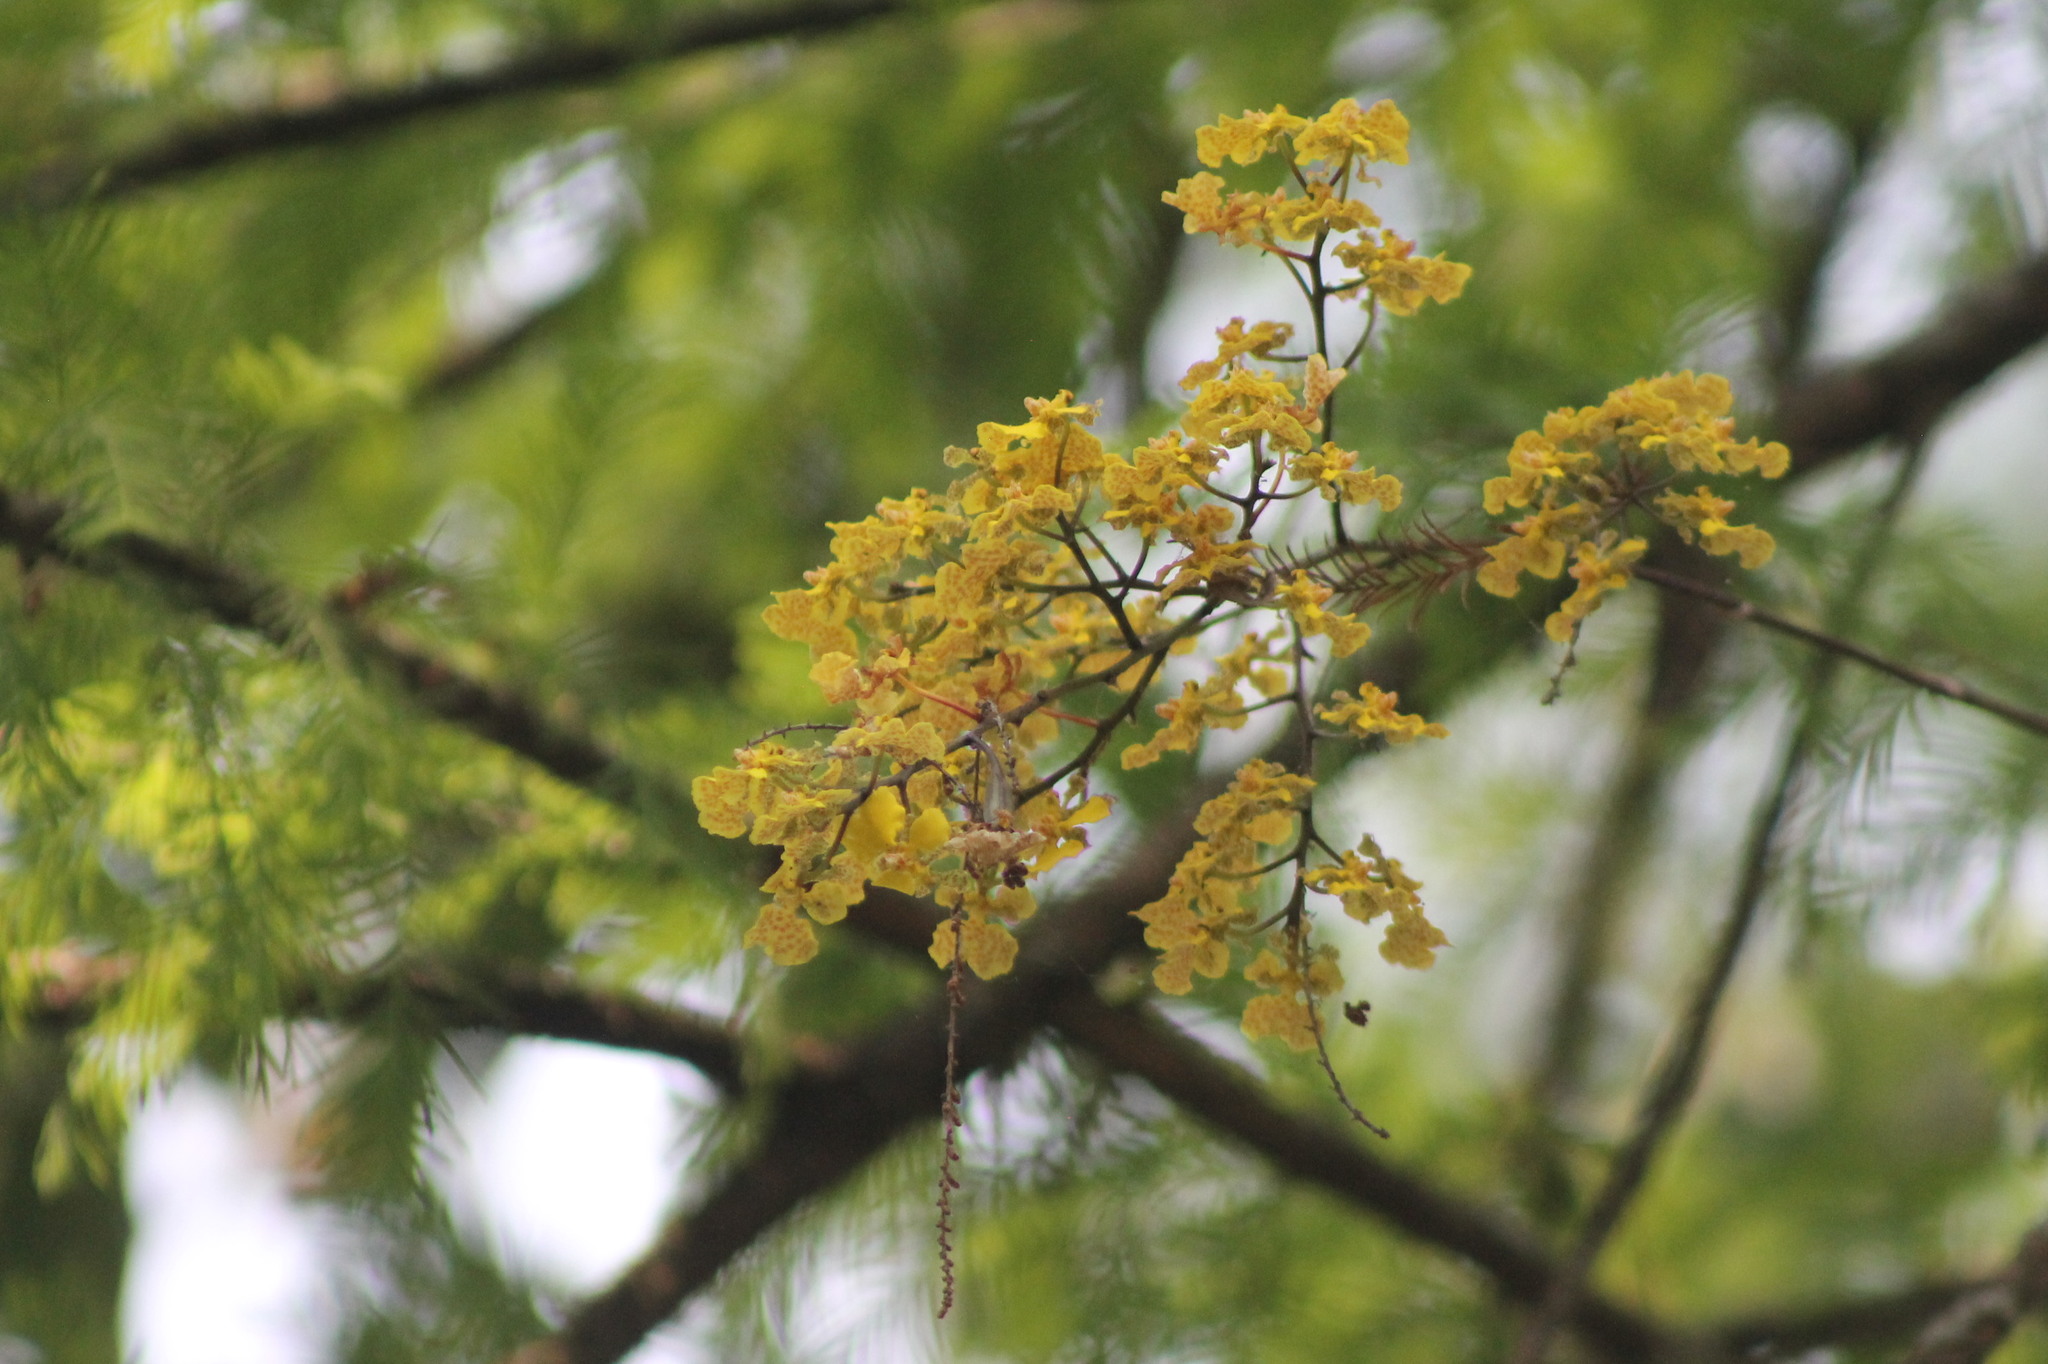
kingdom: Plantae
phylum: Tracheophyta
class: Liliopsida
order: Asparagales
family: Orchidaceae
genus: Trichocentrum
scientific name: Trichocentrum cebolleta
